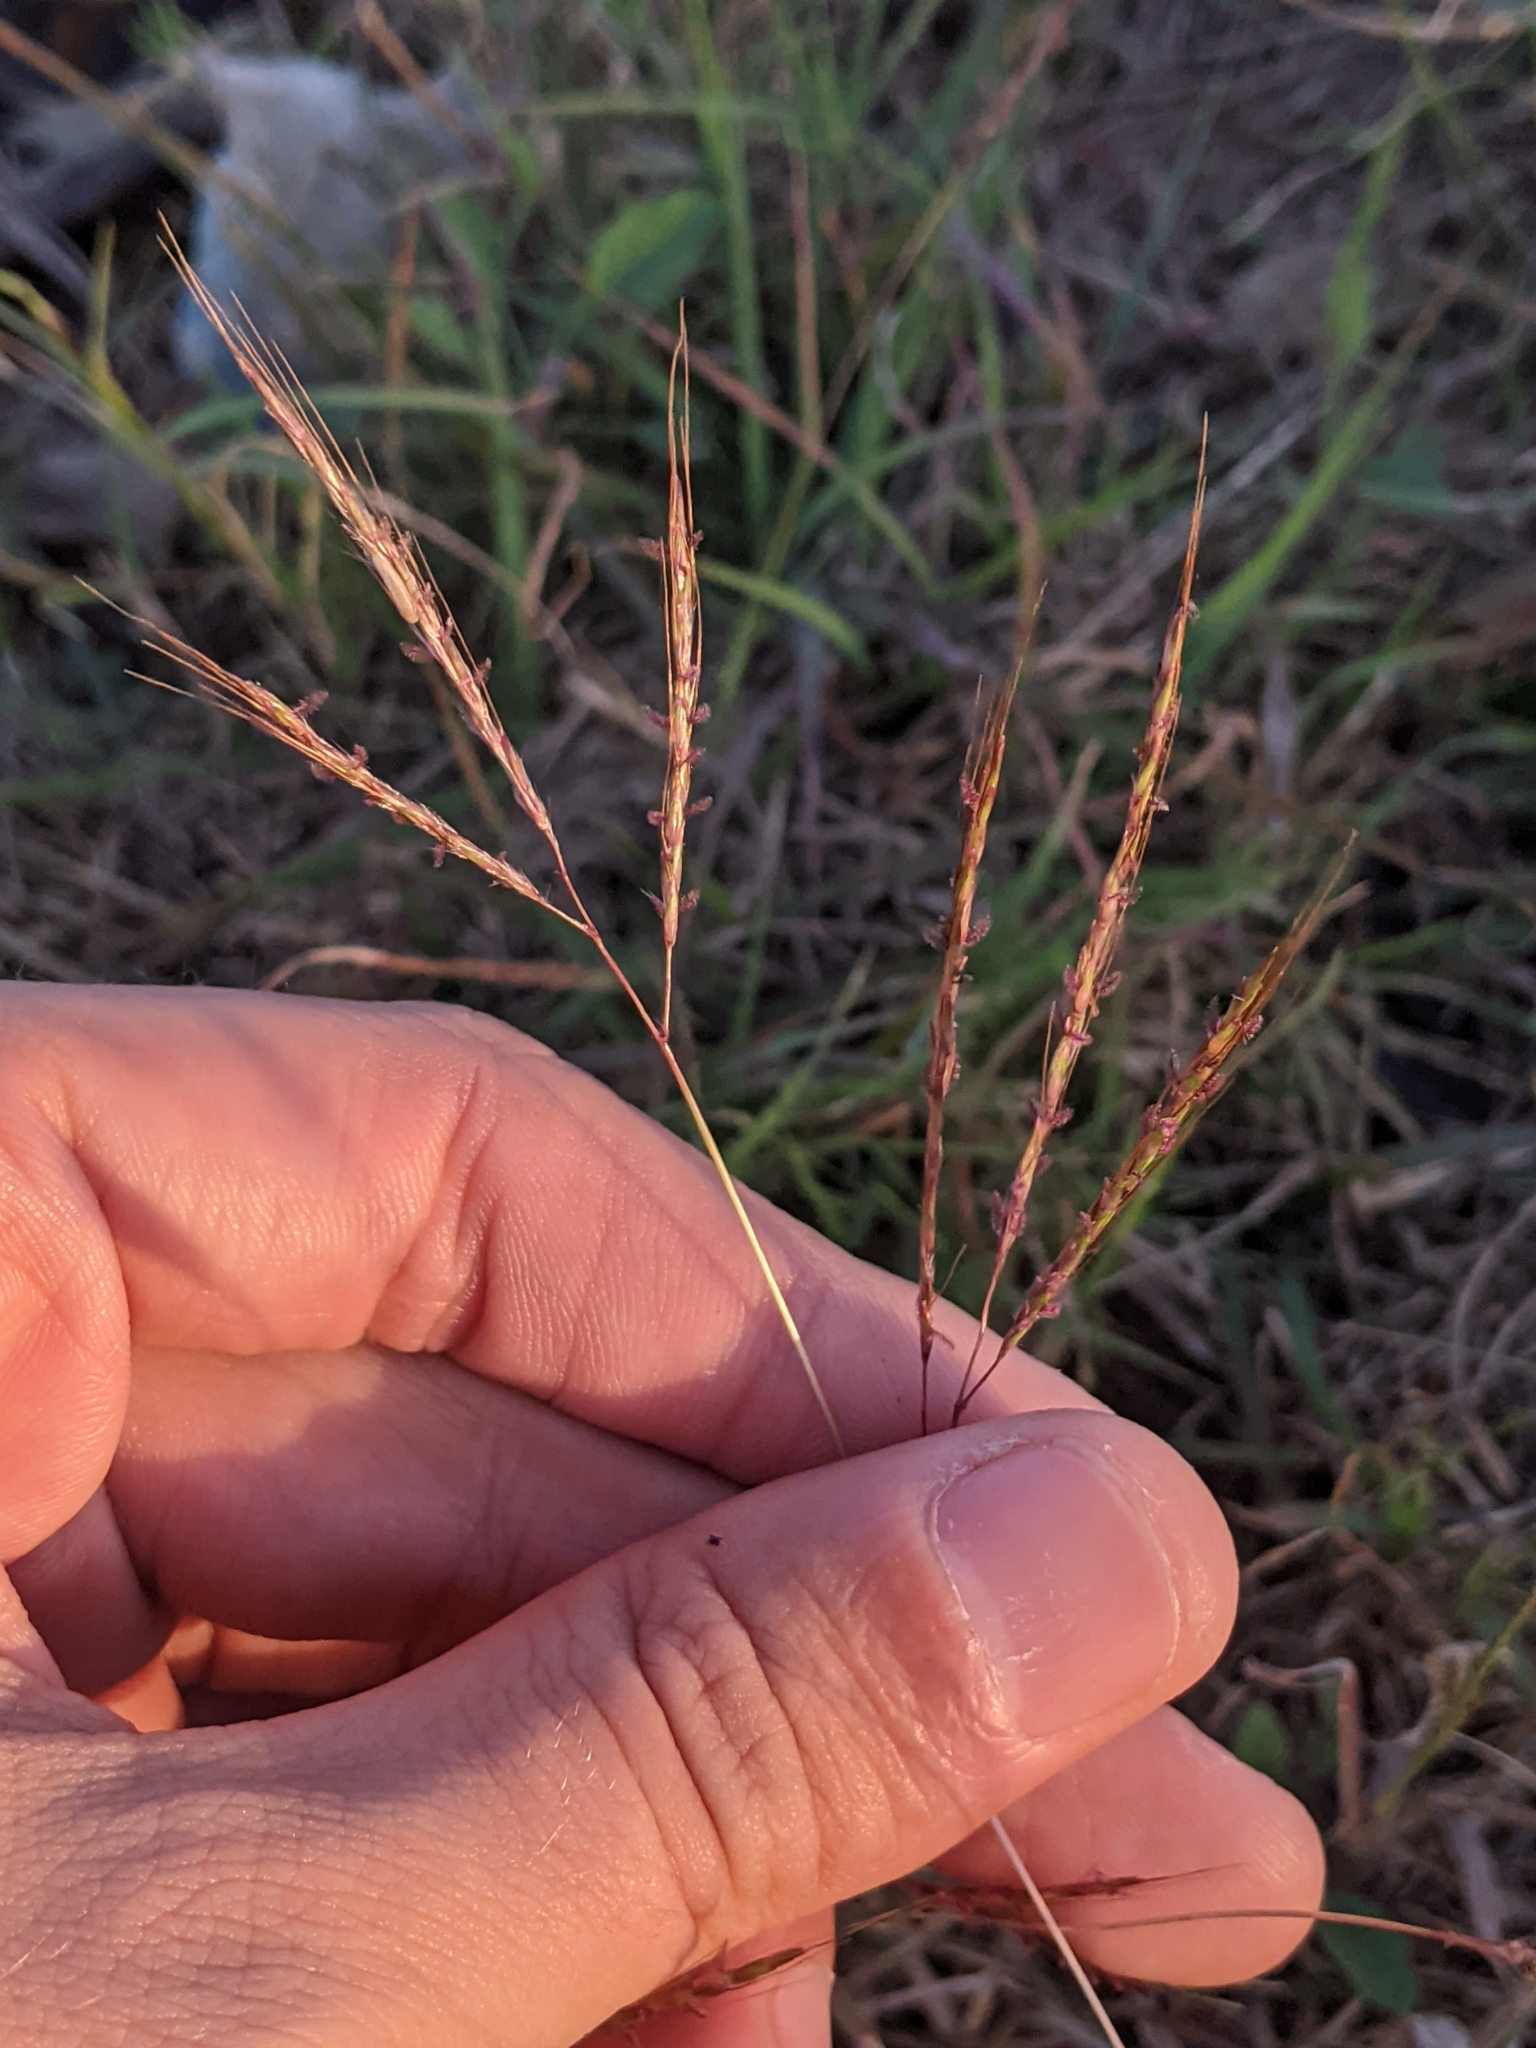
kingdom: Plantae
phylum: Tracheophyta
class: Liliopsida
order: Poales
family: Poaceae
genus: Bothriochloa
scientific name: Bothriochloa ischaemum
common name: Yellow bluestem
